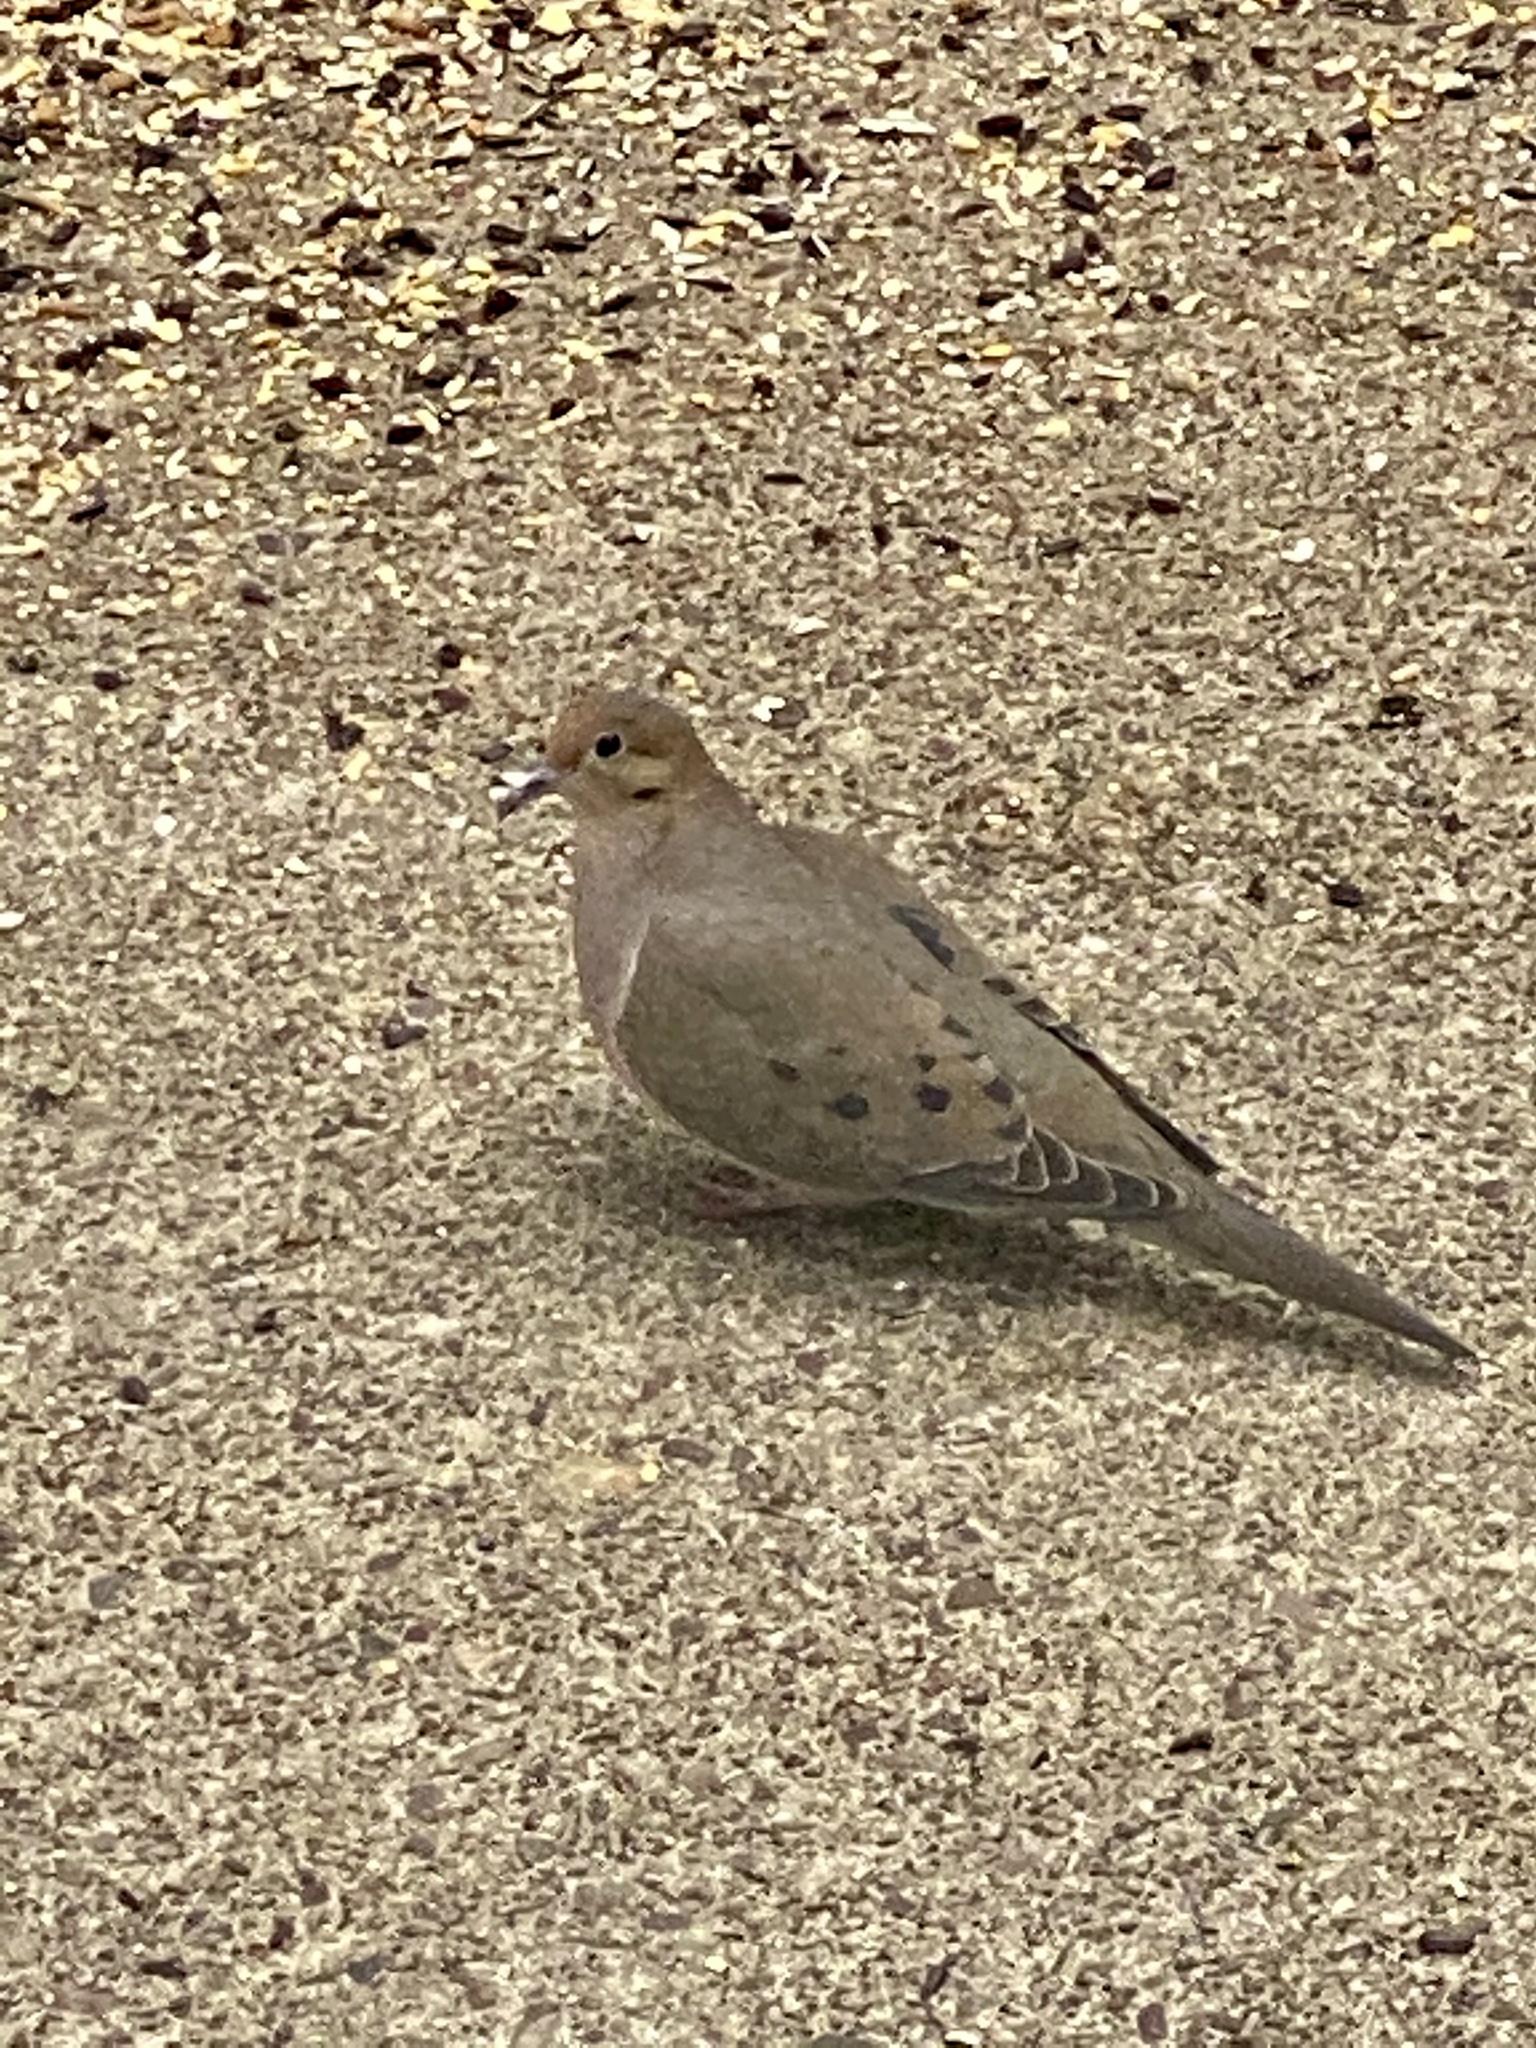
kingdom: Animalia
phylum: Chordata
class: Aves
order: Columbiformes
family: Columbidae
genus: Zenaida
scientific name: Zenaida macroura
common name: Mourning dove
